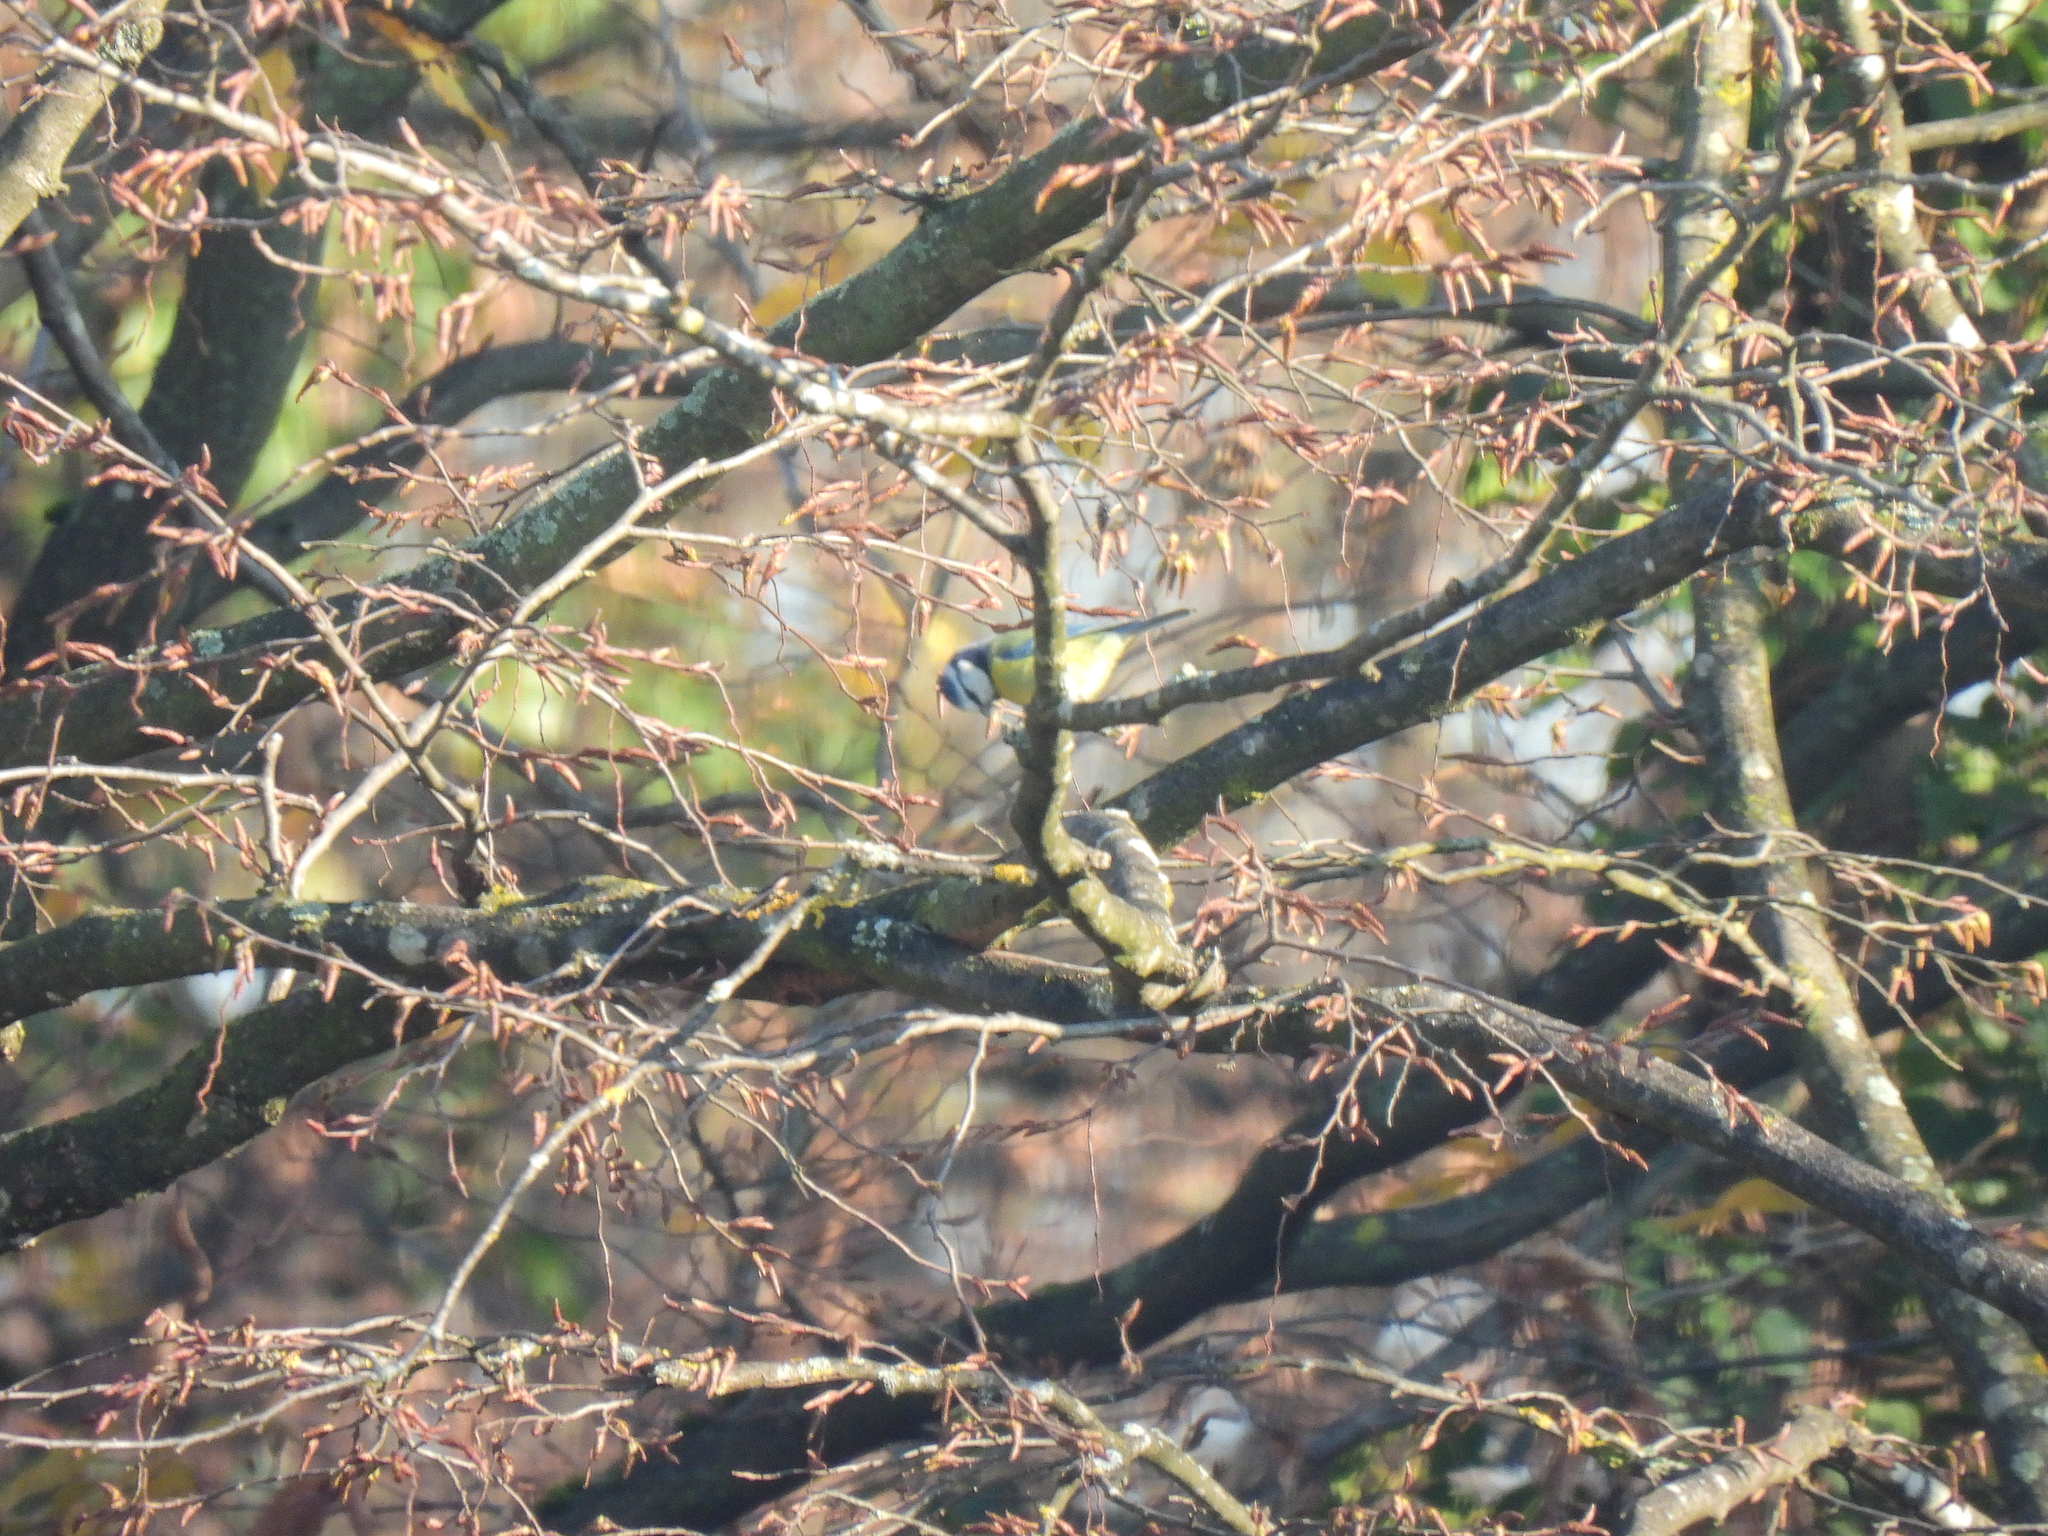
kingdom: Animalia
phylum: Chordata
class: Aves
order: Passeriformes
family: Paridae
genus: Cyanistes
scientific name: Cyanistes caeruleus
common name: Eurasian blue tit
